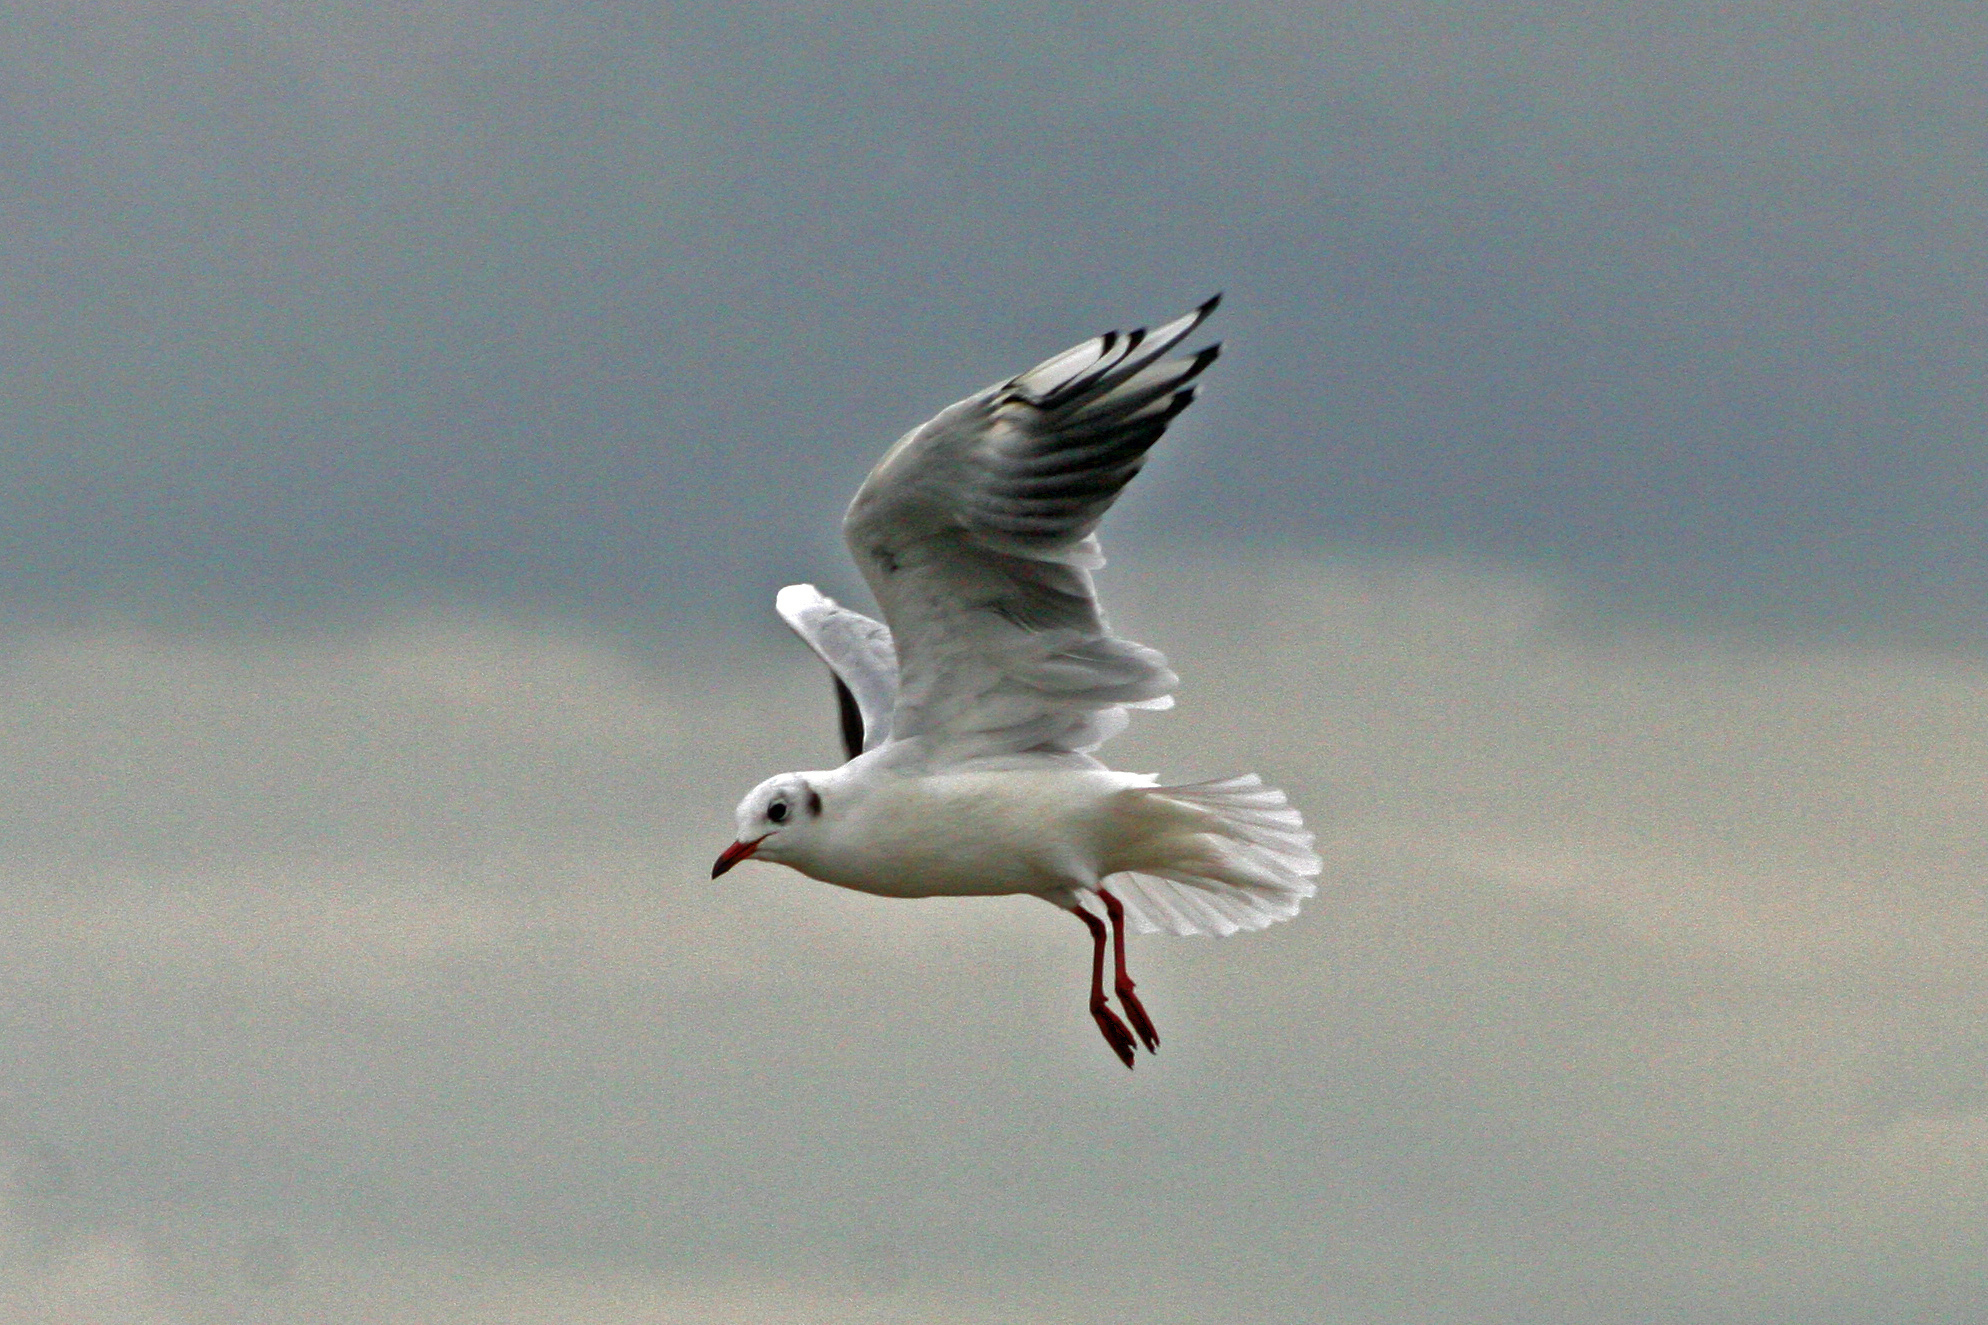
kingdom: Animalia
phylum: Chordata
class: Aves
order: Charadriiformes
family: Laridae
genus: Chroicocephalus
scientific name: Chroicocephalus ridibundus
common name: Black-headed gull
